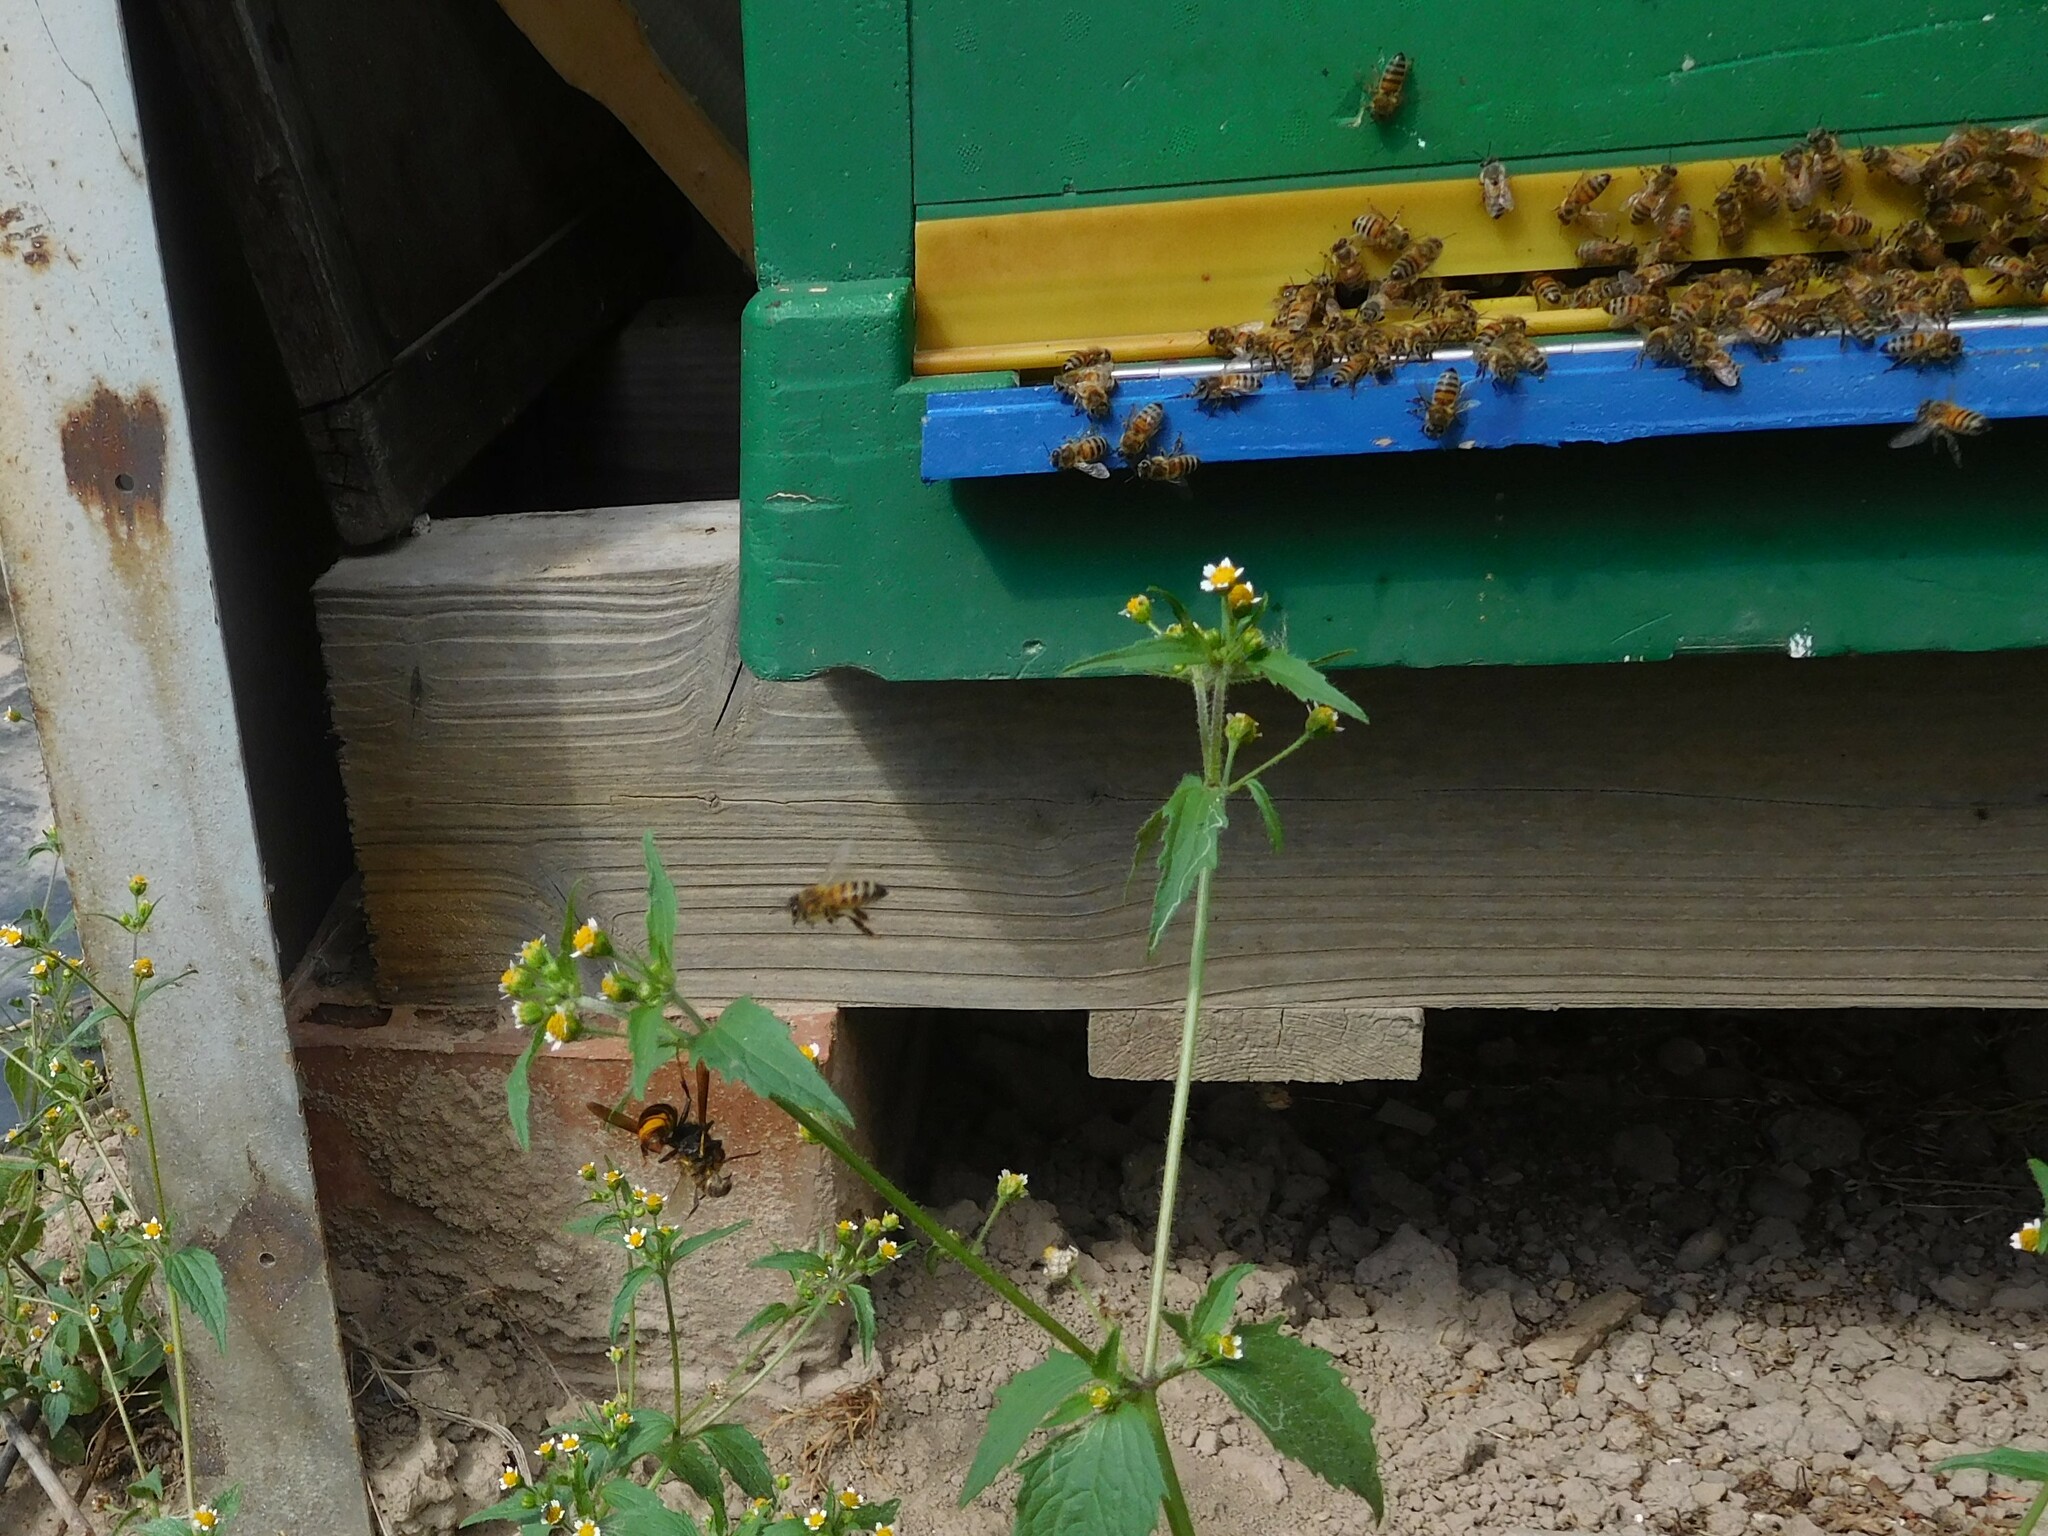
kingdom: Animalia
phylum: Arthropoda
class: Insecta
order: Hymenoptera
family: Vespidae
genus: Vespa
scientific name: Vespa velutina
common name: Asian hornet
